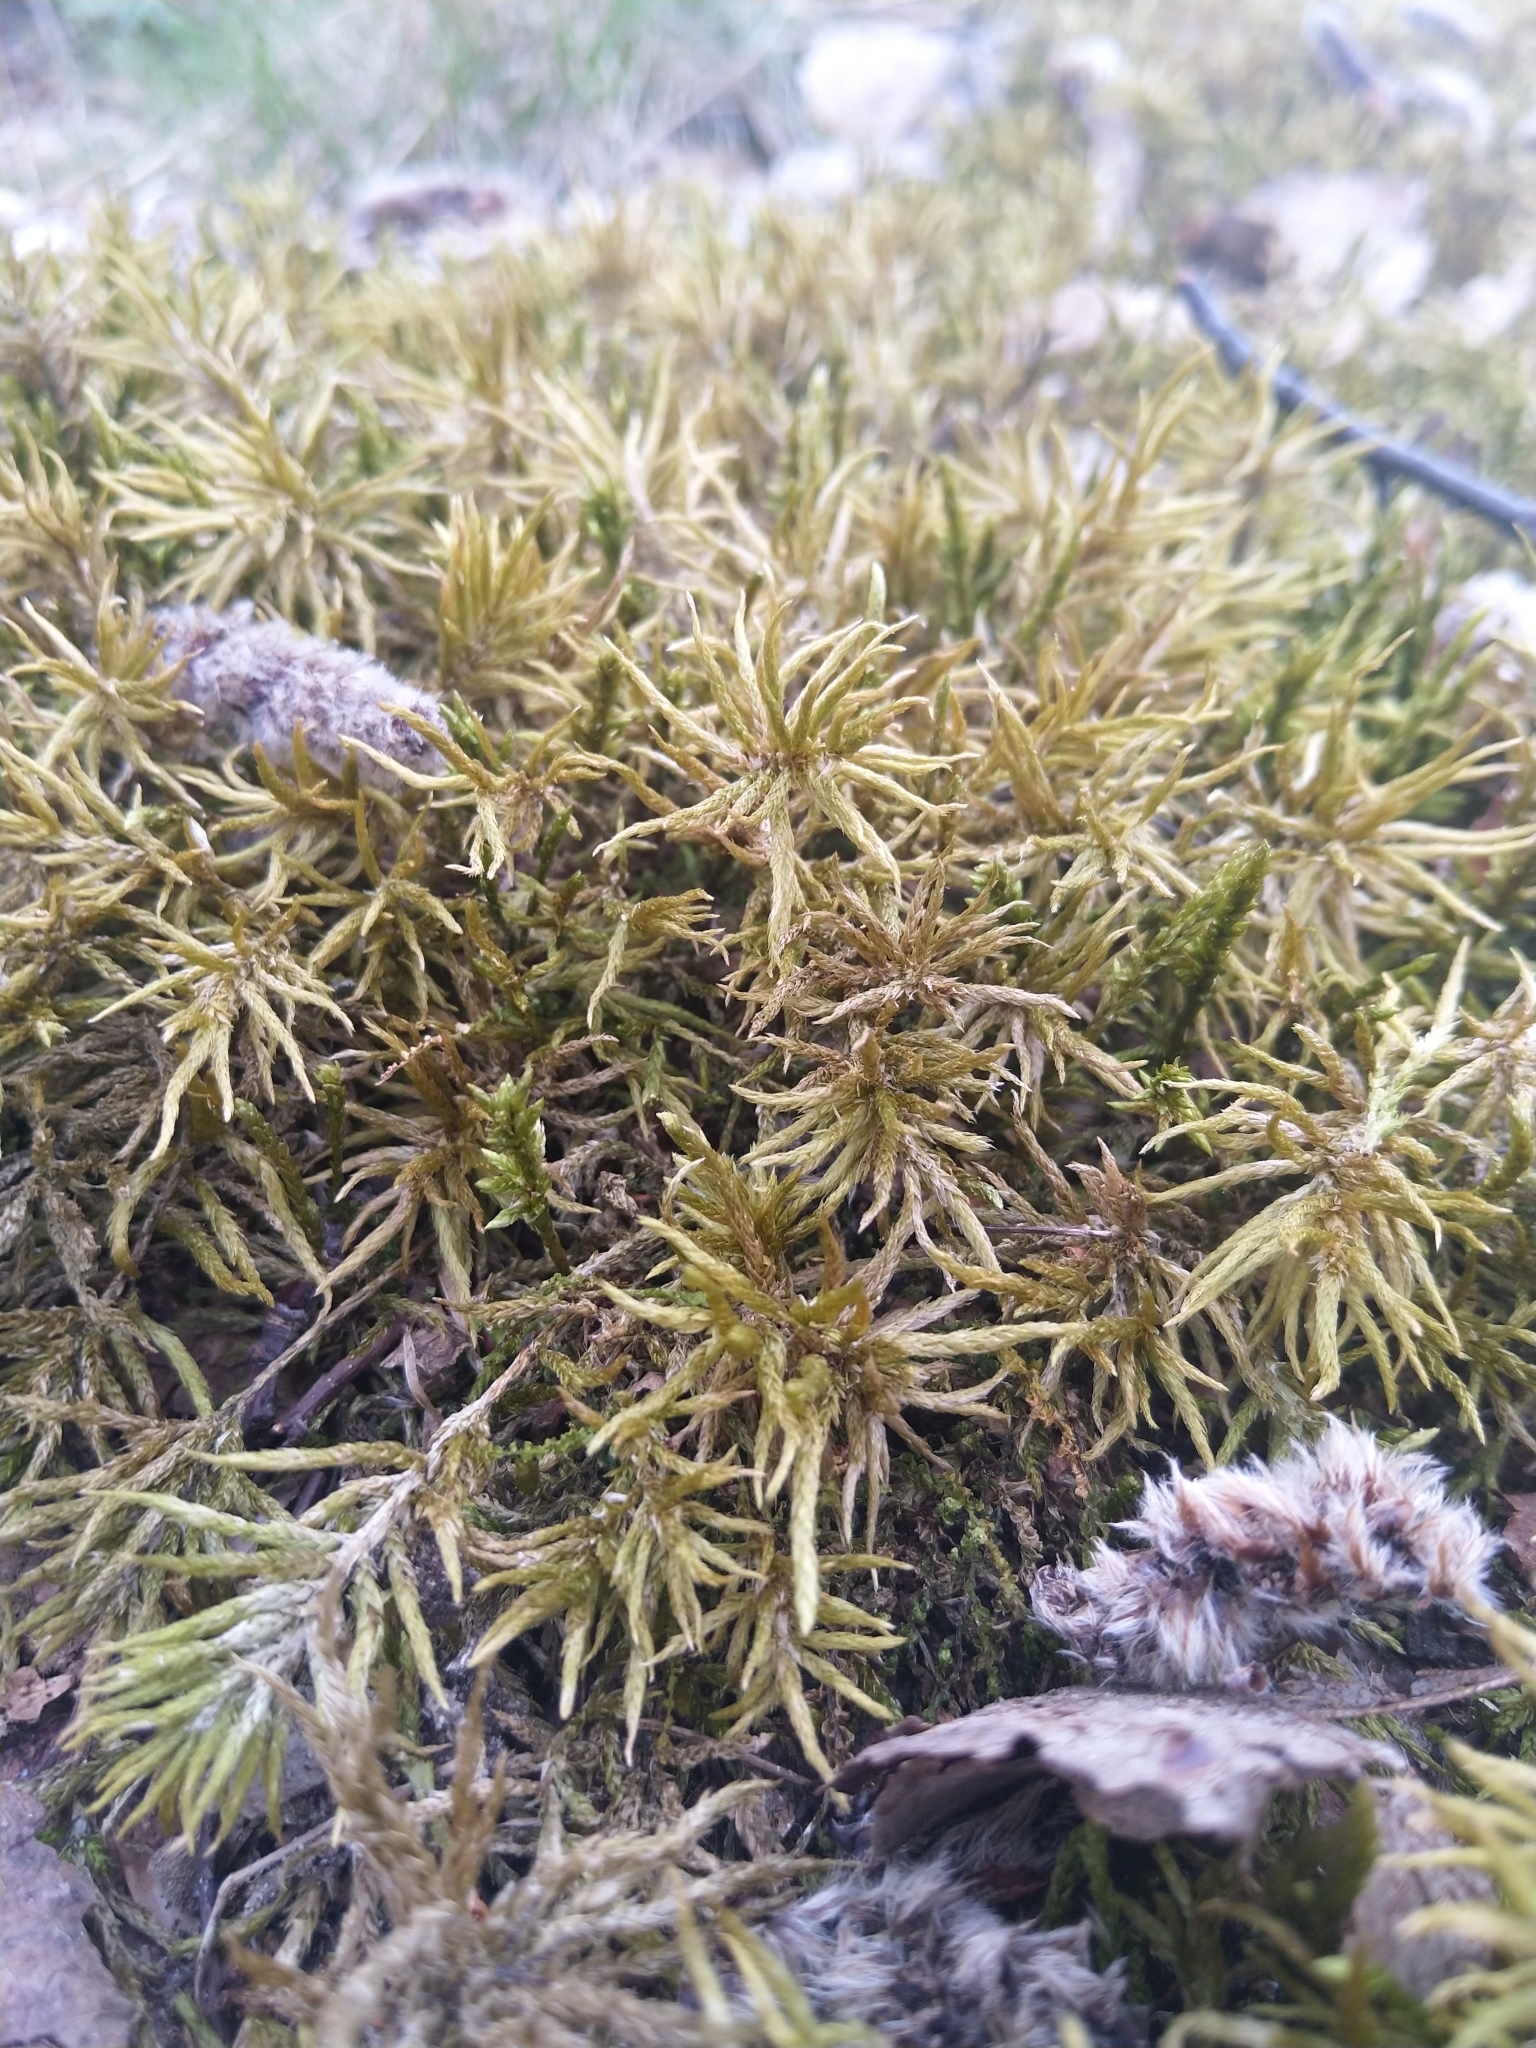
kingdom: Plantae
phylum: Bryophyta
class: Bryopsida
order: Hypnales
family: Climaciaceae
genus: Climacium
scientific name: Climacium dendroides
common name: Northern tree moss
